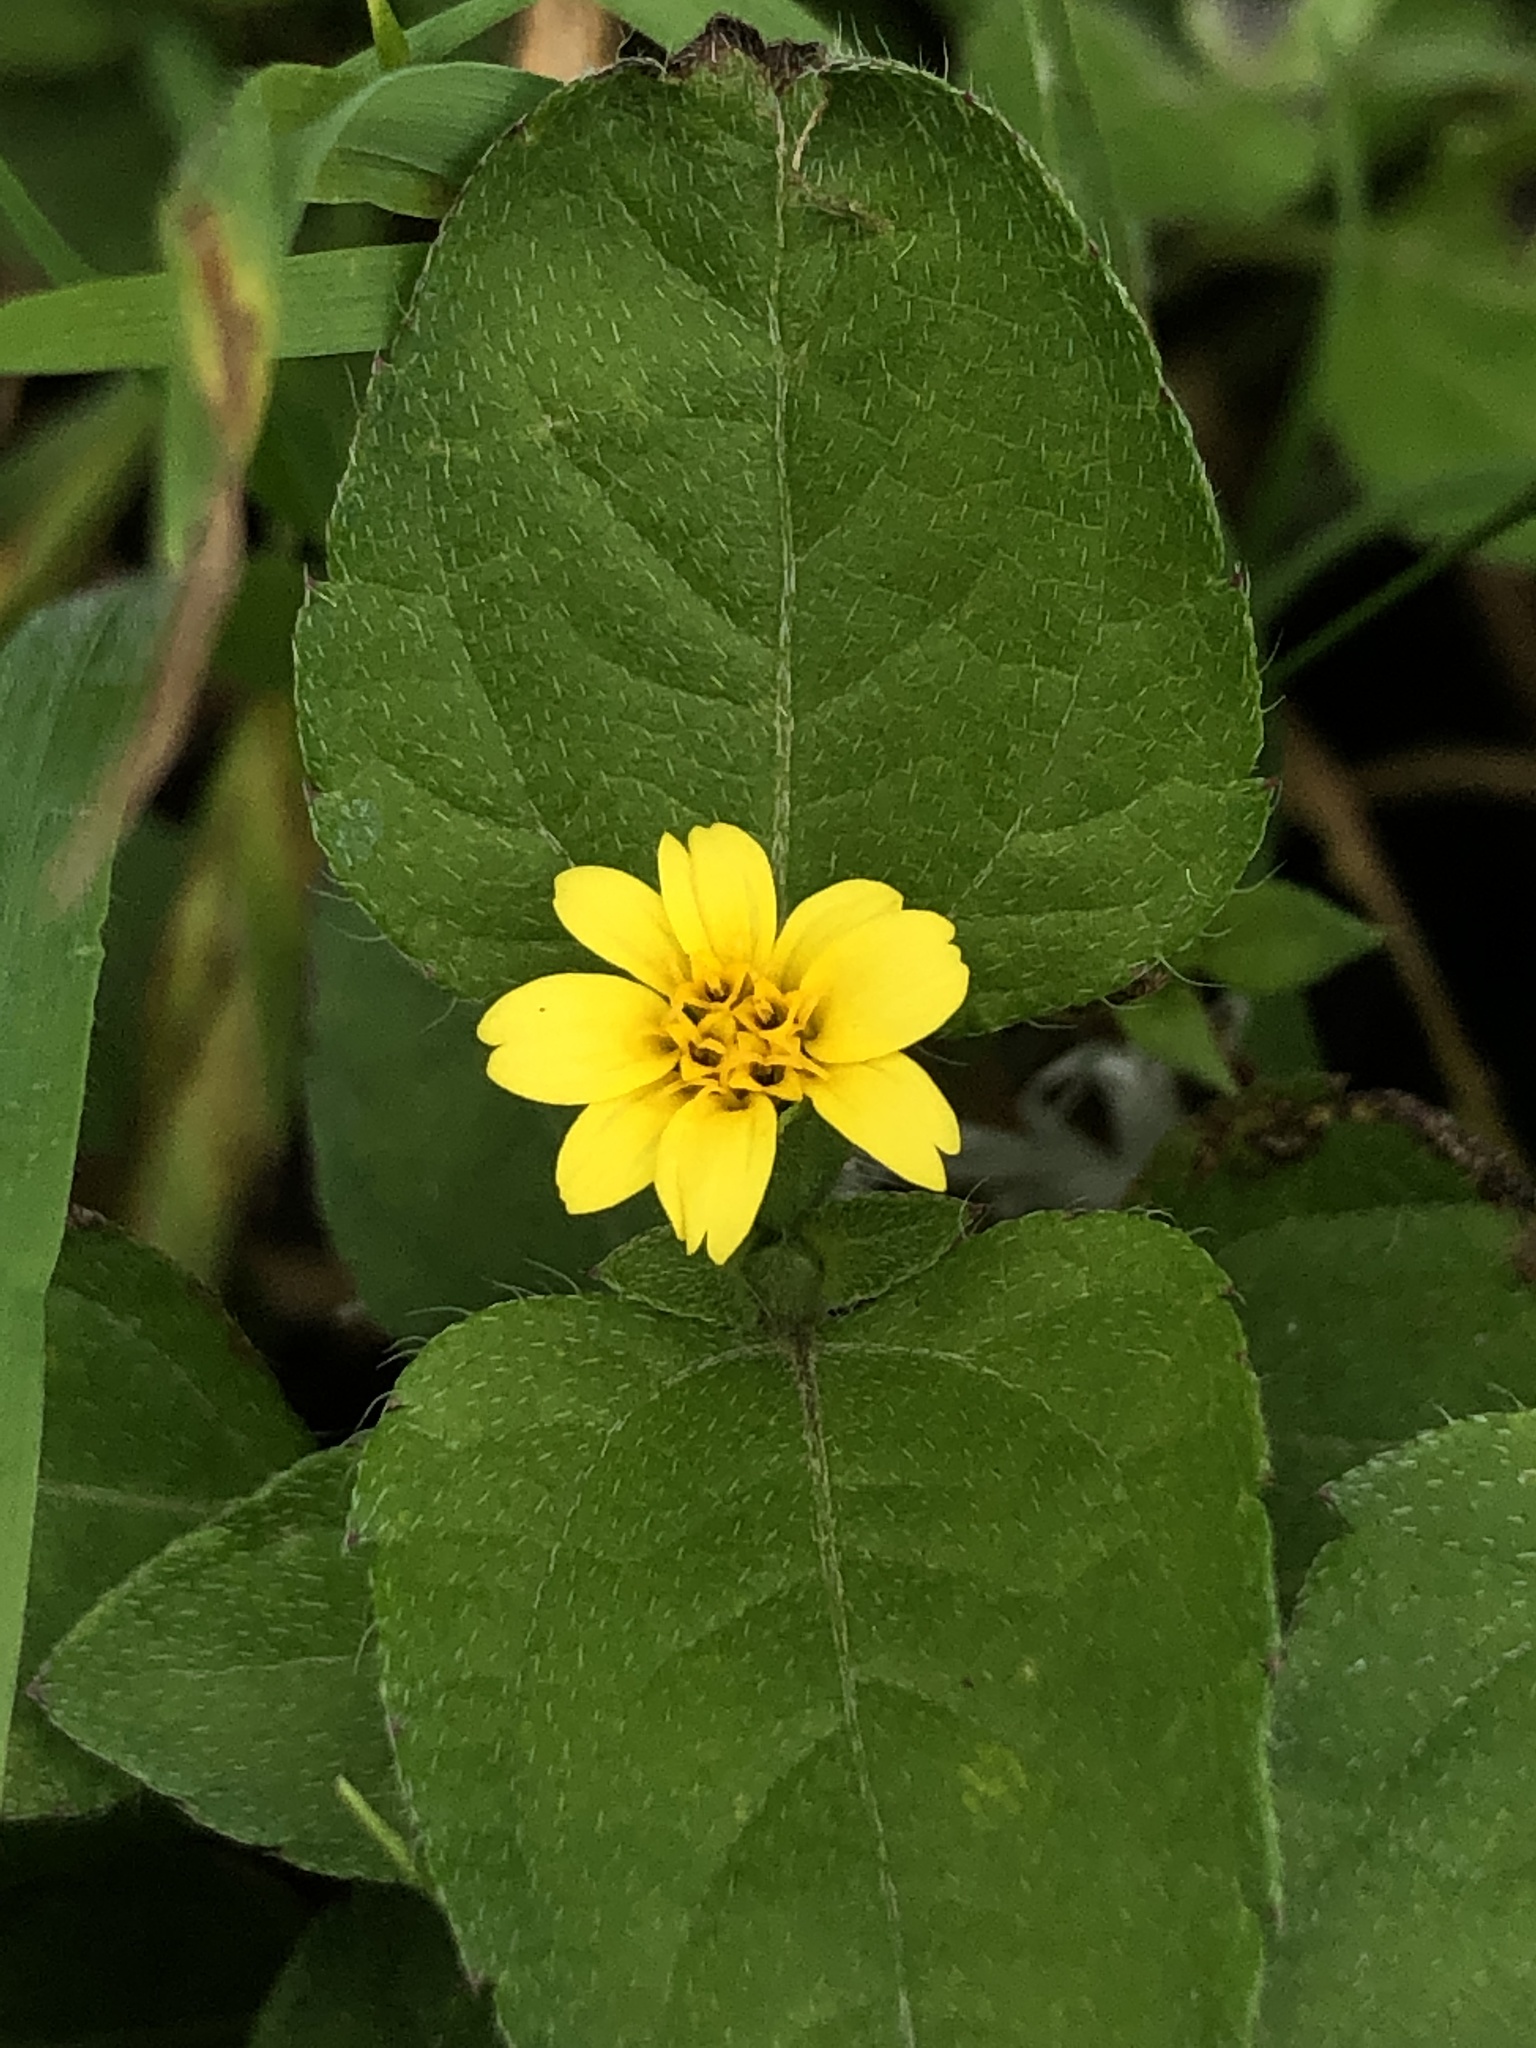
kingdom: Plantae
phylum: Tracheophyta
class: Magnoliopsida
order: Asterales
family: Asteraceae
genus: Calyptocarpus
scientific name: Calyptocarpus vialis
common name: Straggler daisy
